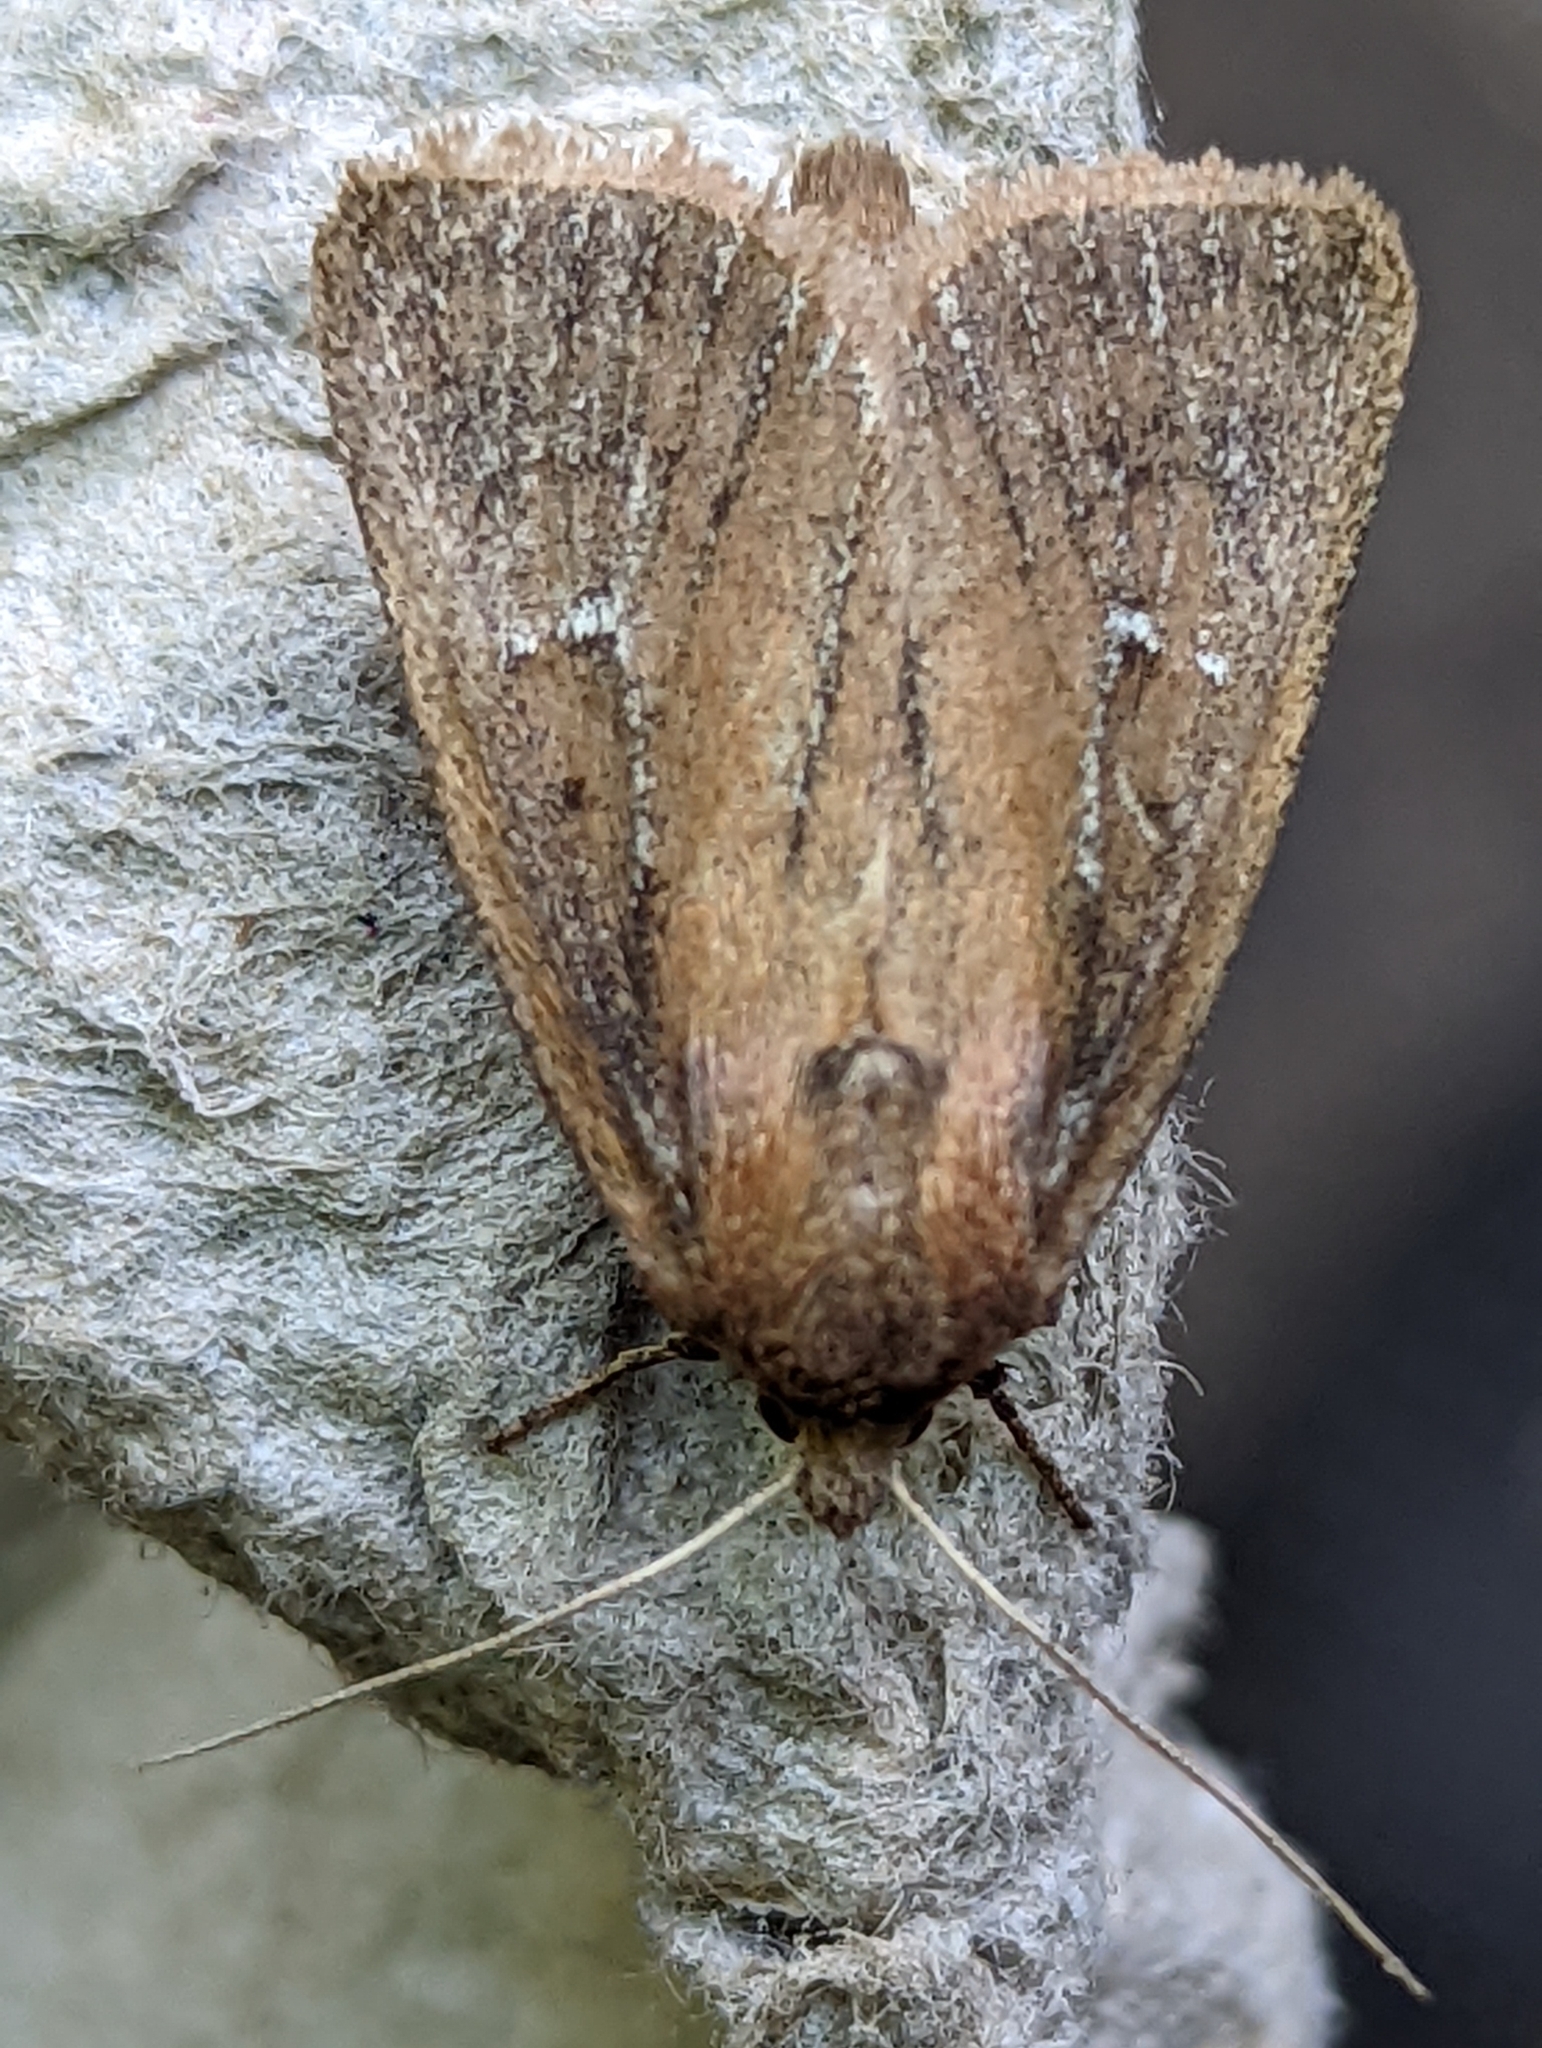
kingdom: Animalia
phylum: Arthropoda
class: Insecta
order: Lepidoptera
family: Noctuidae
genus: Lenisa
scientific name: Lenisa geminipuncta
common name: Twin-spotted wainscot
